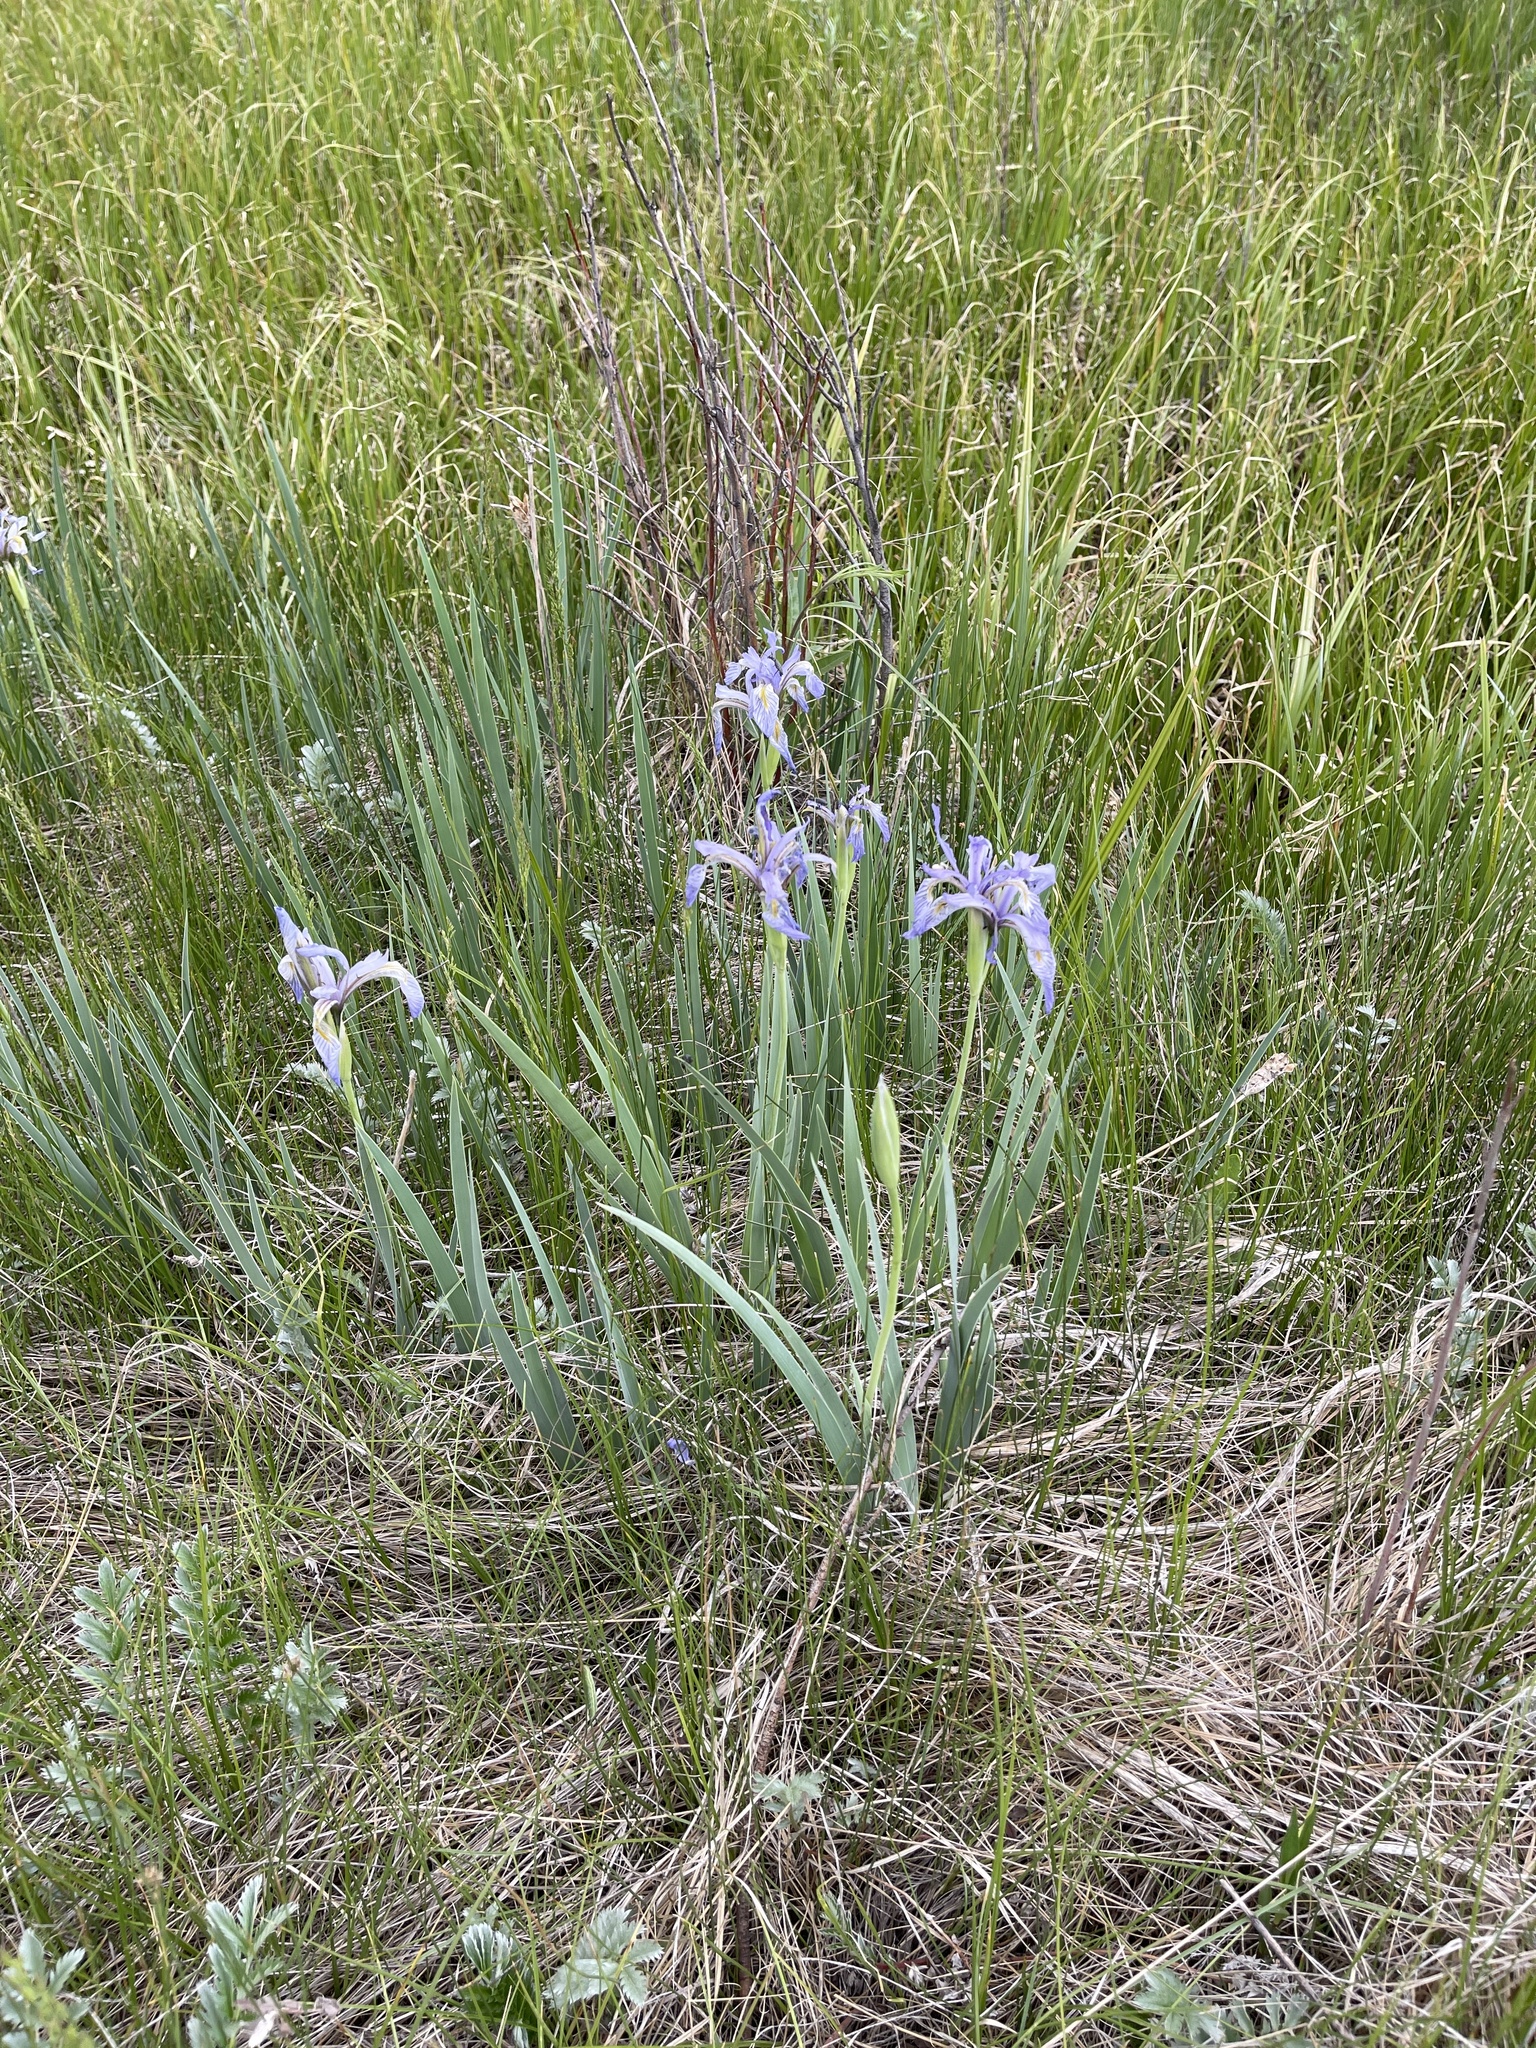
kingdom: Plantae
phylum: Tracheophyta
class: Liliopsida
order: Asparagales
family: Iridaceae
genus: Iris
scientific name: Iris missouriensis
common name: Rocky mountain iris
